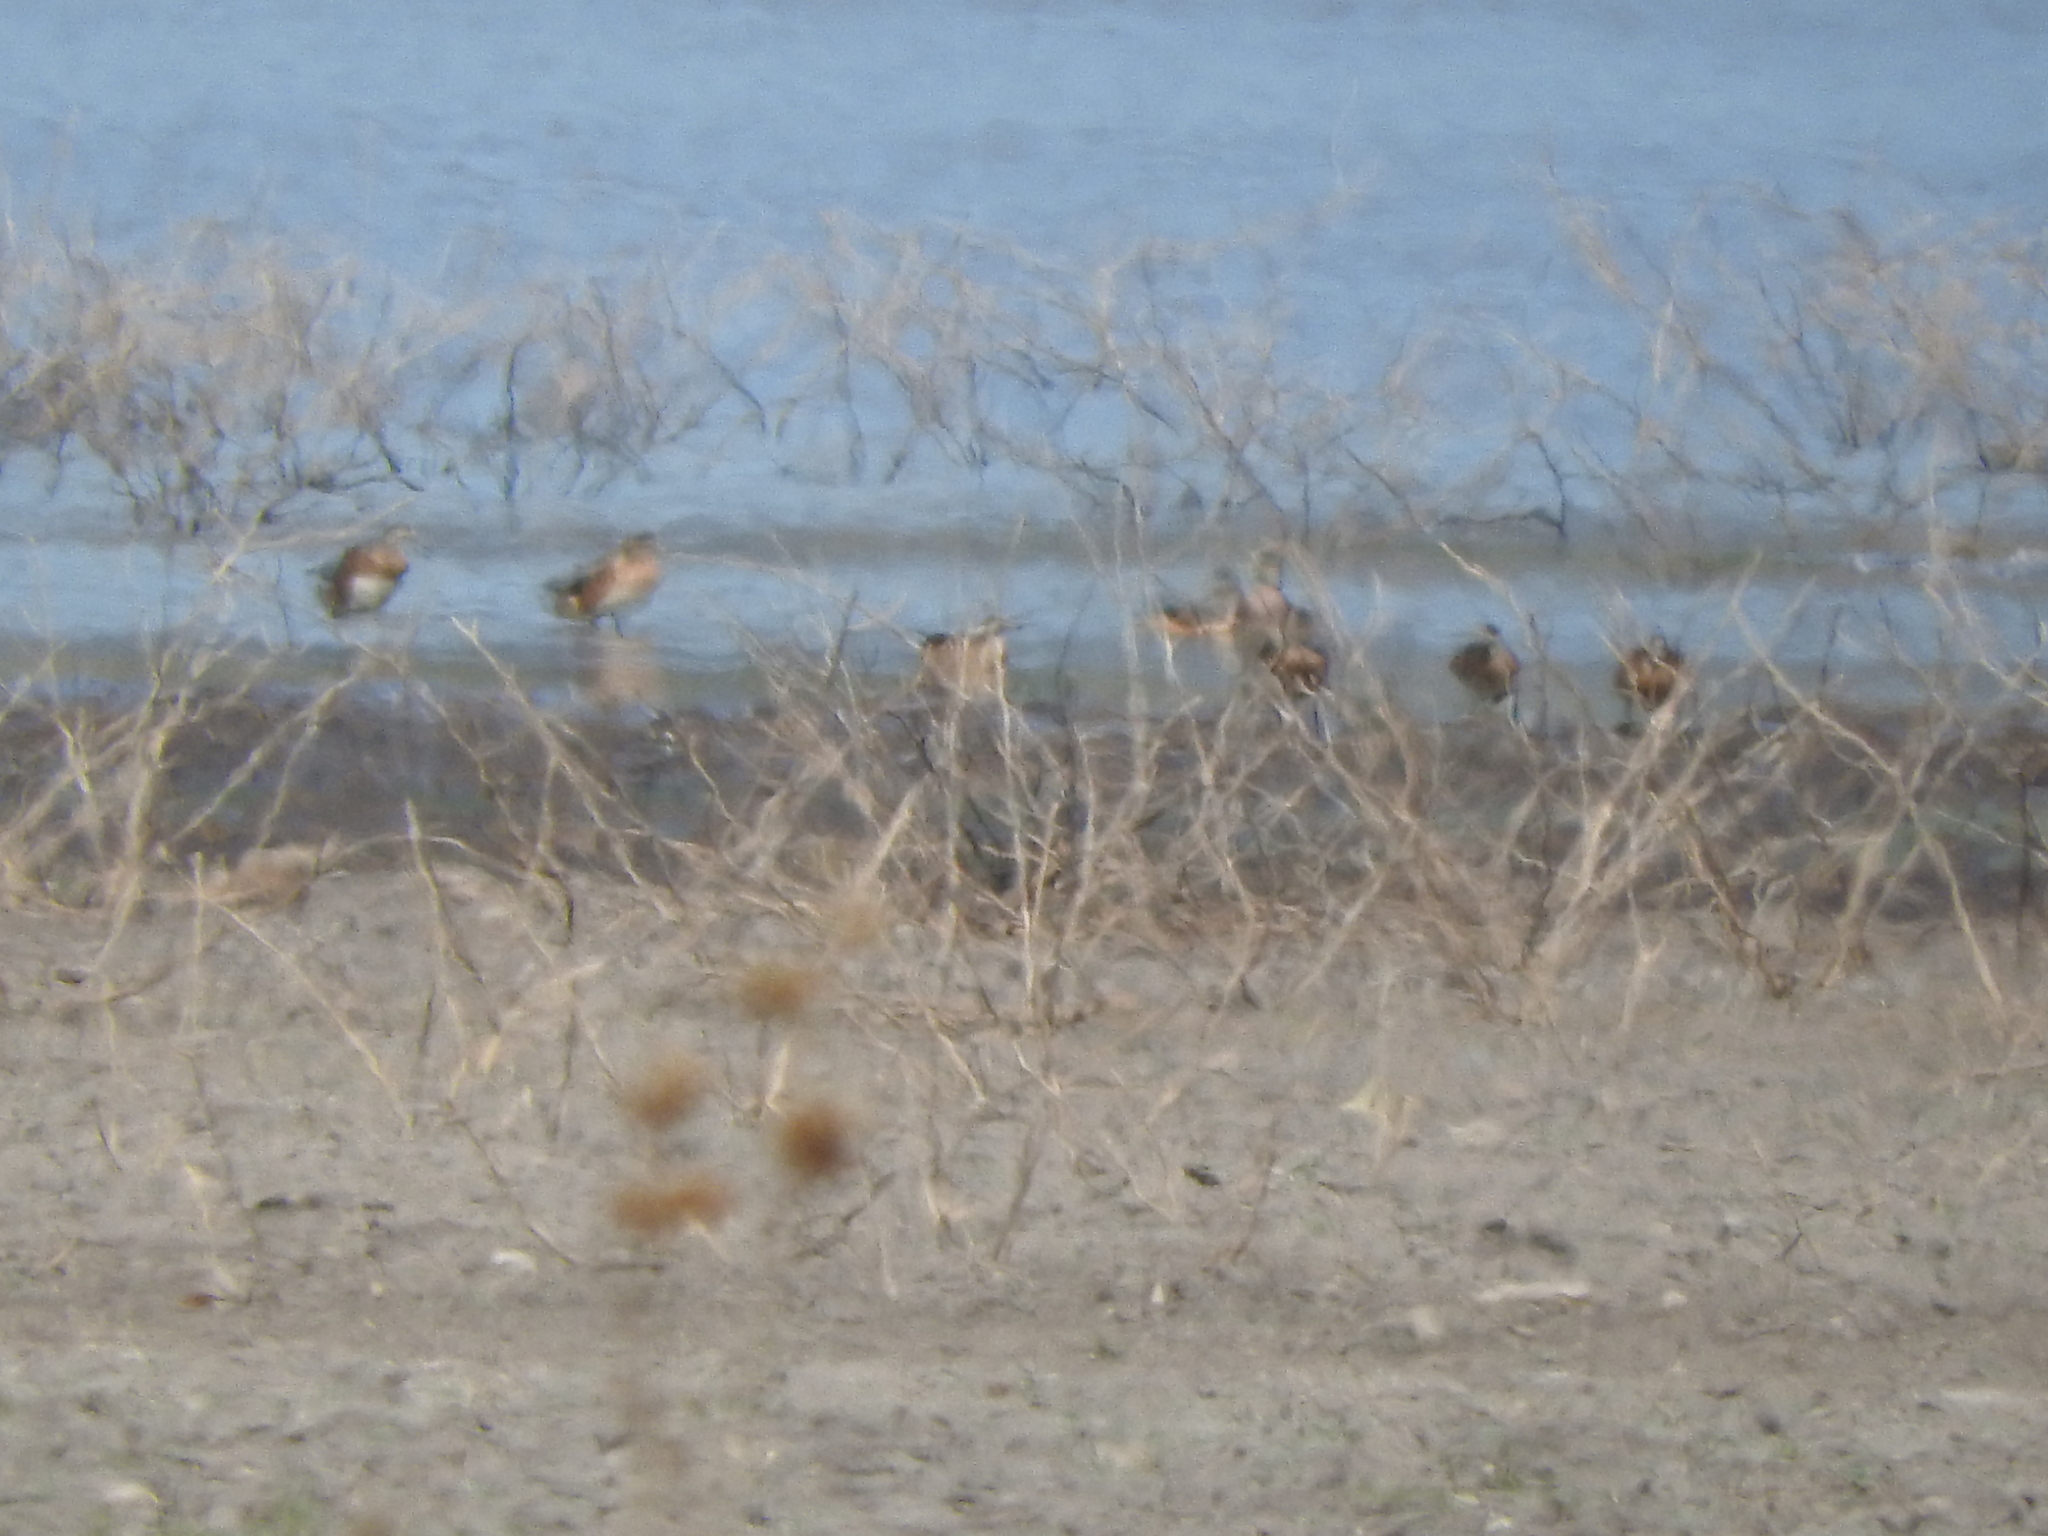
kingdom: Animalia
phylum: Chordata
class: Aves
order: Anseriformes
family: Anatidae
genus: Mareca
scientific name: Mareca strepera
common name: Gadwall
